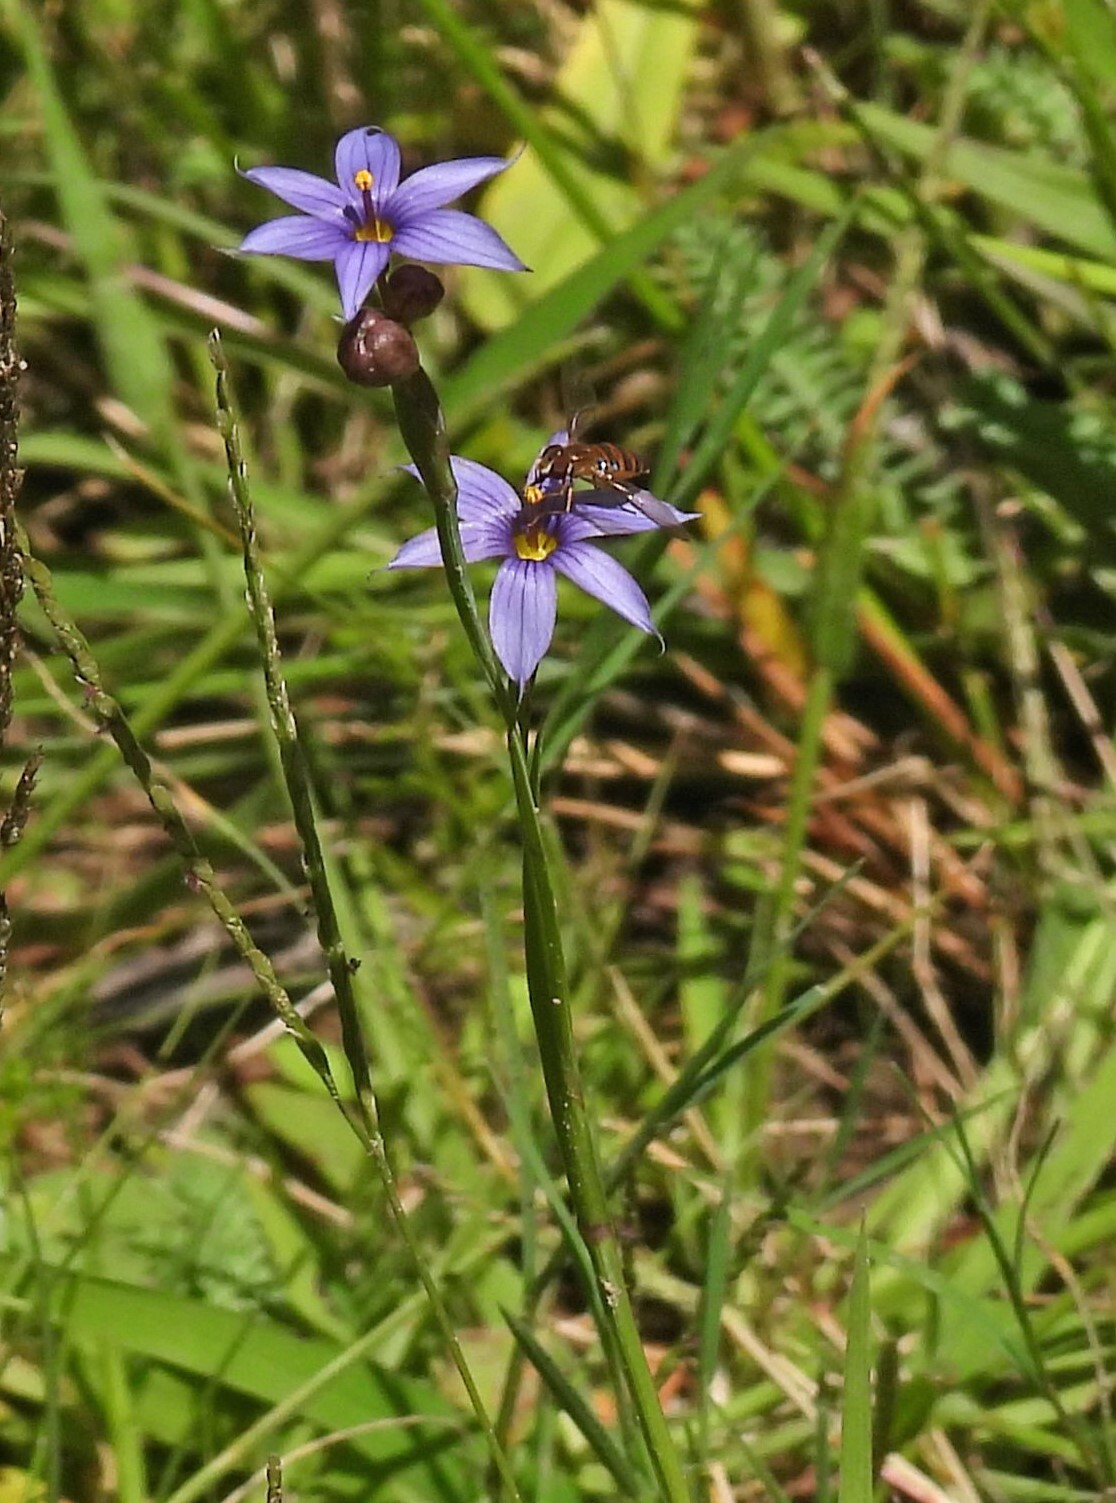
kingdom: Plantae
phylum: Tracheophyta
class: Liliopsida
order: Asparagales
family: Iridaceae
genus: Sisyrinchium
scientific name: Sisyrinchium chilense
